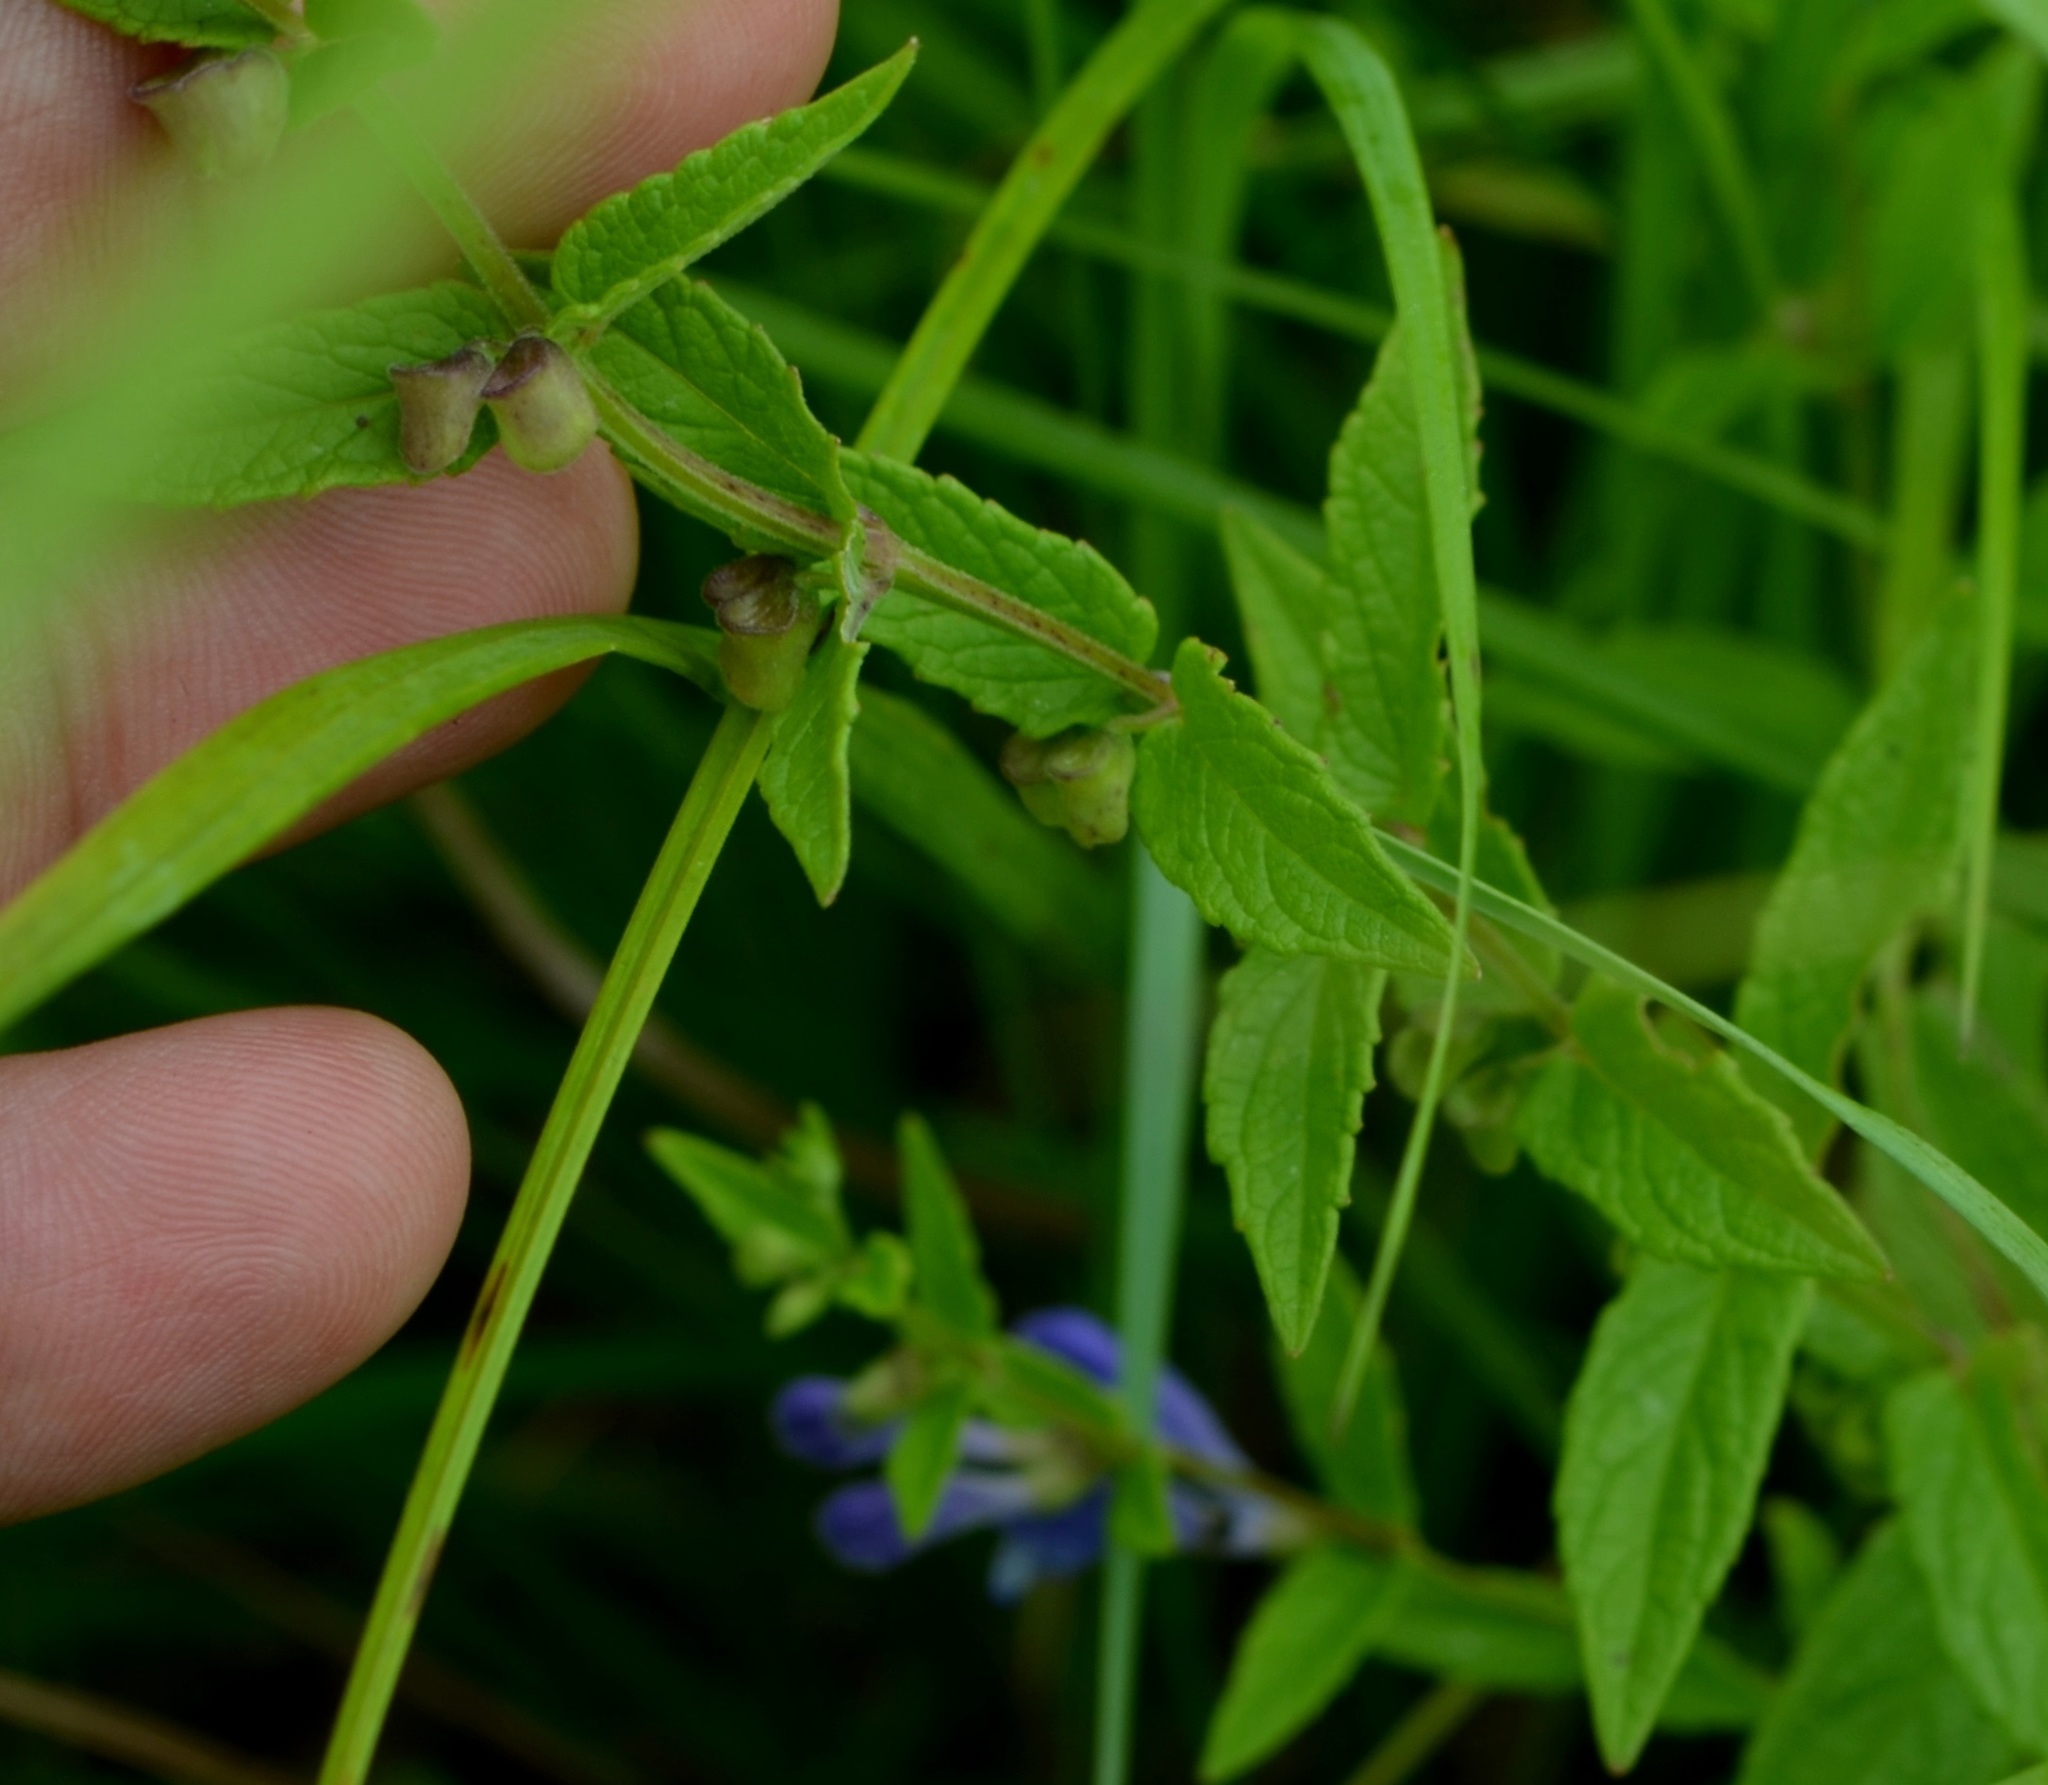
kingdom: Plantae
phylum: Tracheophyta
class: Magnoliopsida
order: Lamiales
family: Lamiaceae
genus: Scutellaria
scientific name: Scutellaria galericulata
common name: Skullcap
